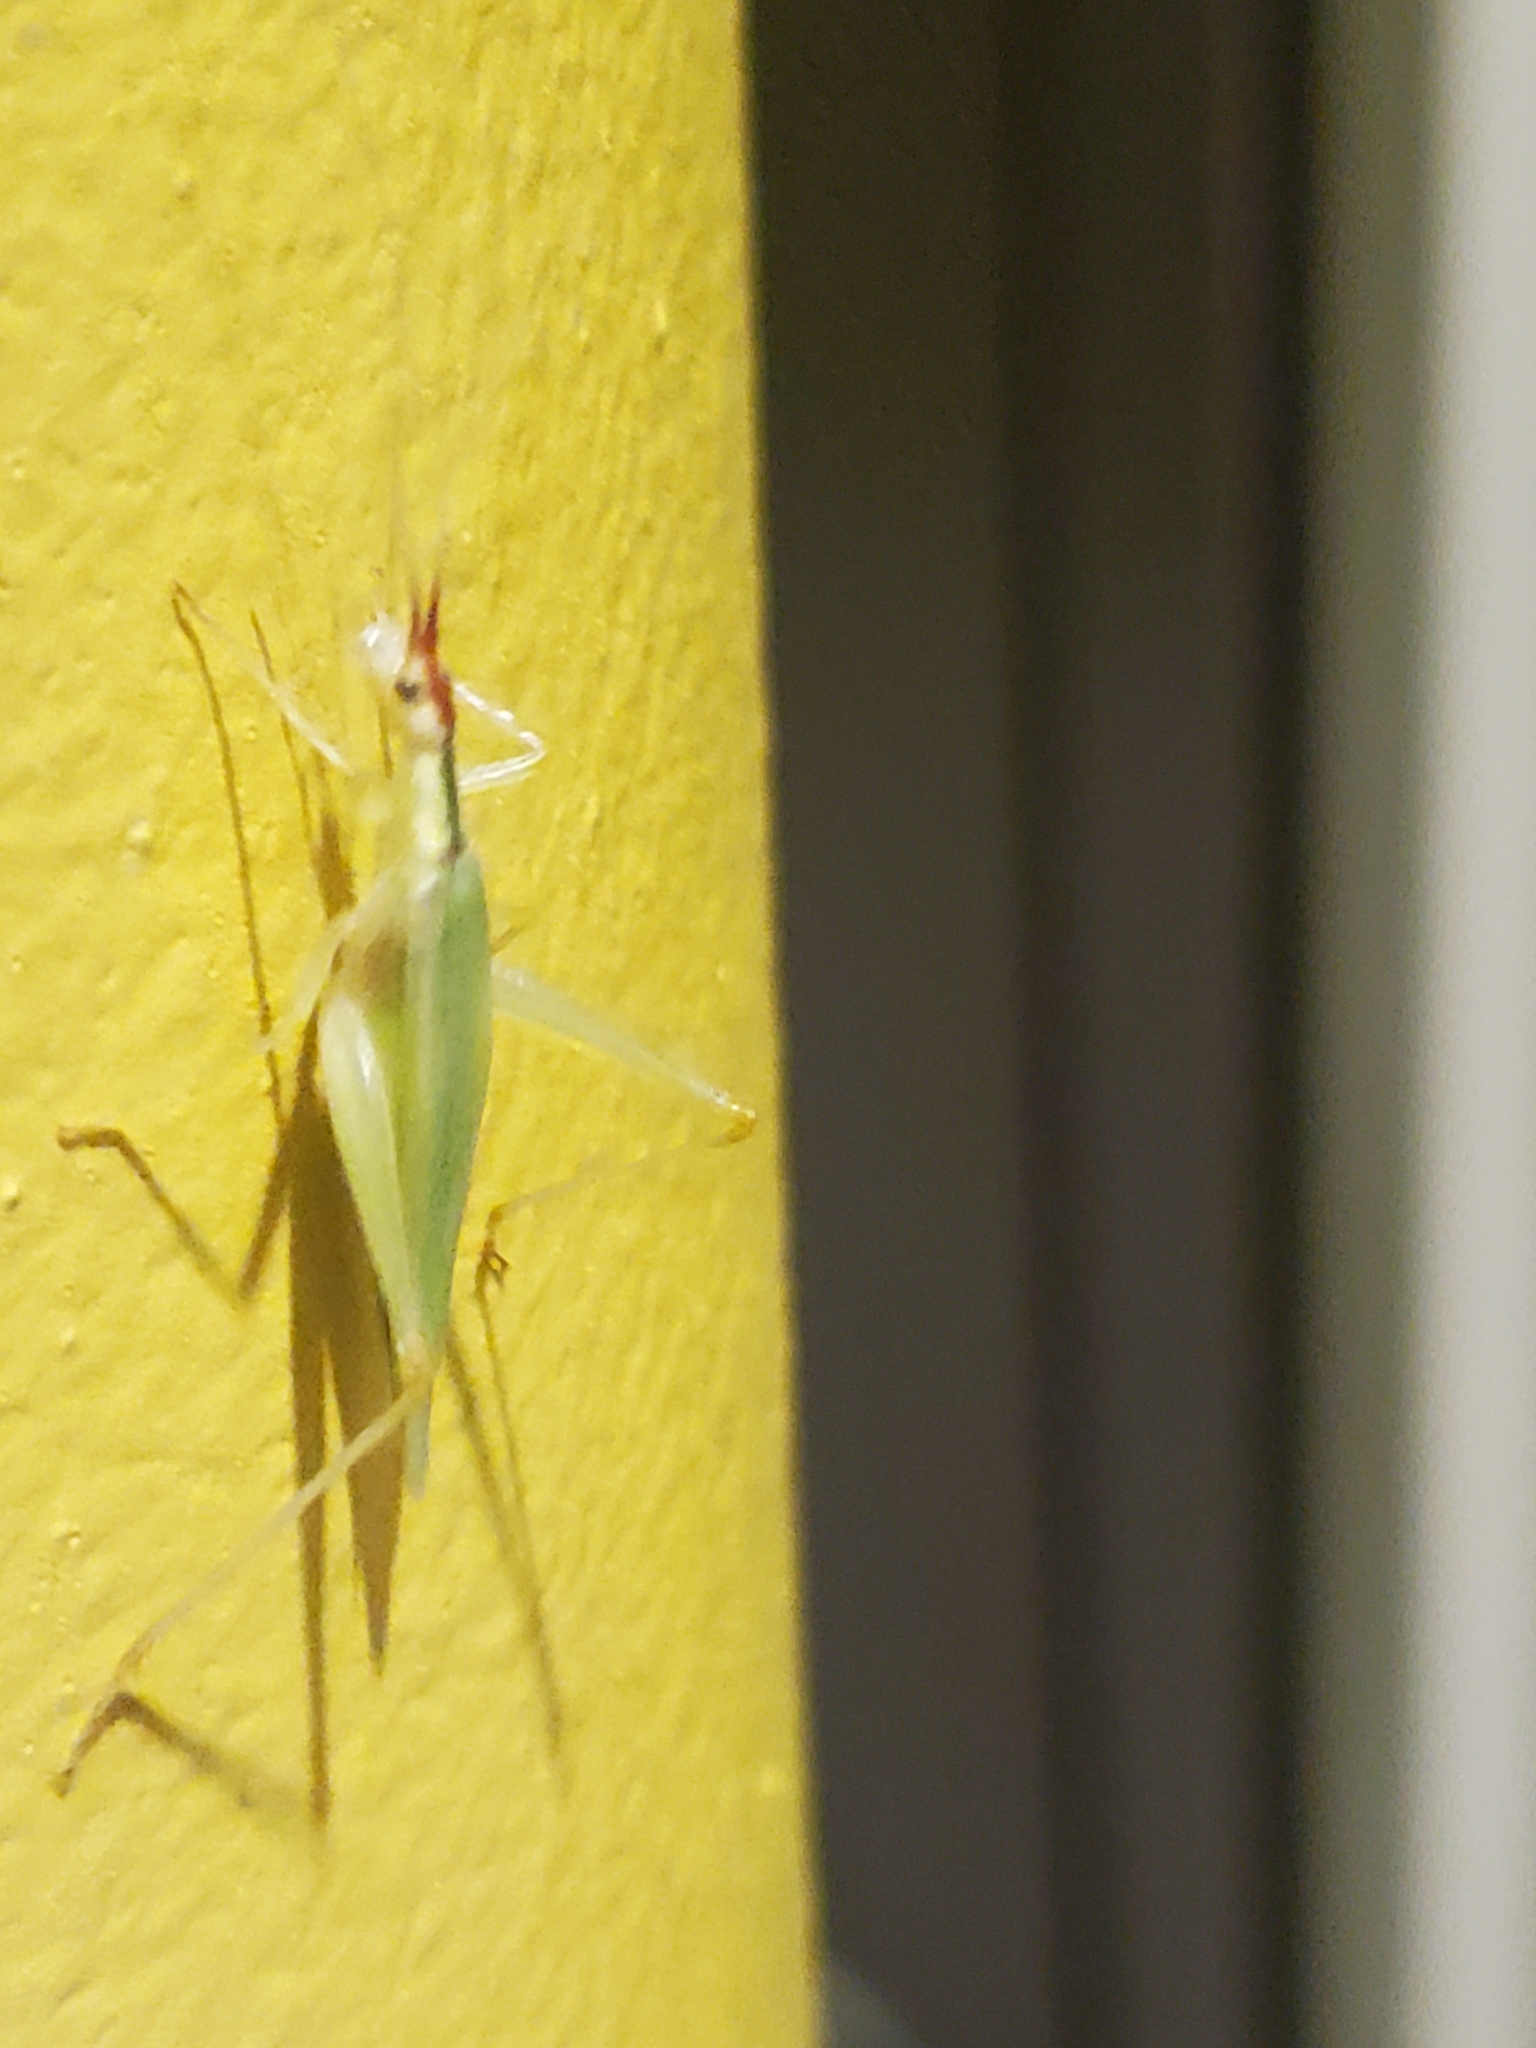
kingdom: Animalia
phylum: Arthropoda
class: Insecta
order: Orthoptera
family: Gryllidae
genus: Oecanthus
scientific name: Oecanthus latipennis
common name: Broad-winged tree cricket
